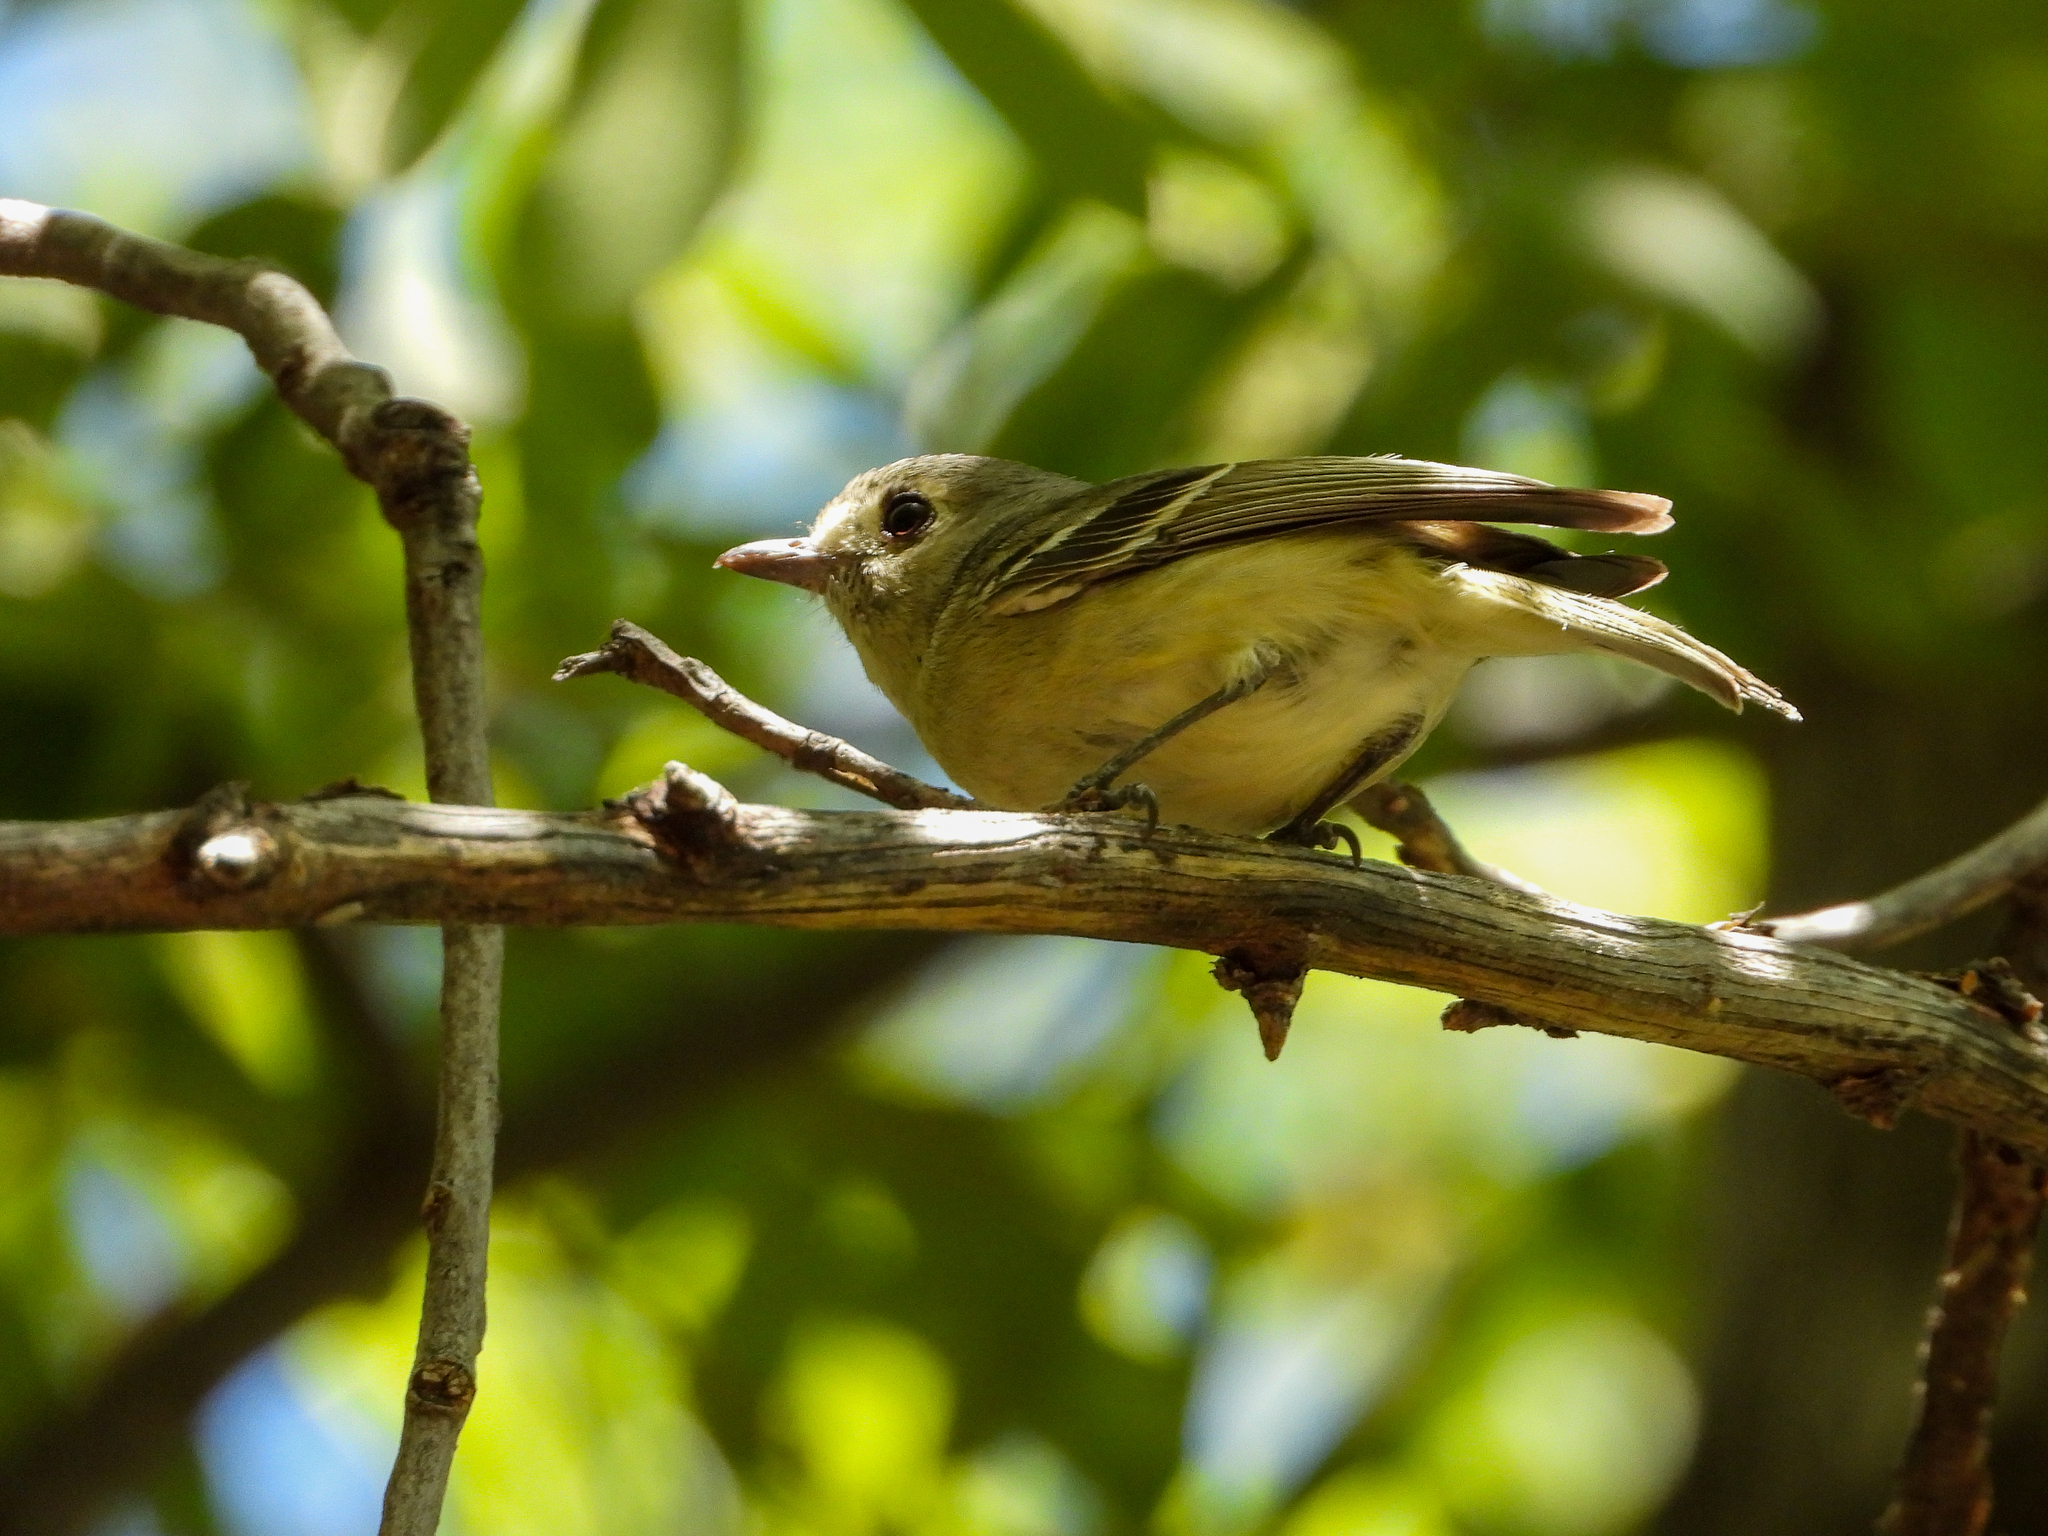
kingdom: Animalia
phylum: Chordata
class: Aves
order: Passeriformes
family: Vireonidae
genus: Vireo
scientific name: Vireo huttoni
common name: Hutton's vireo
